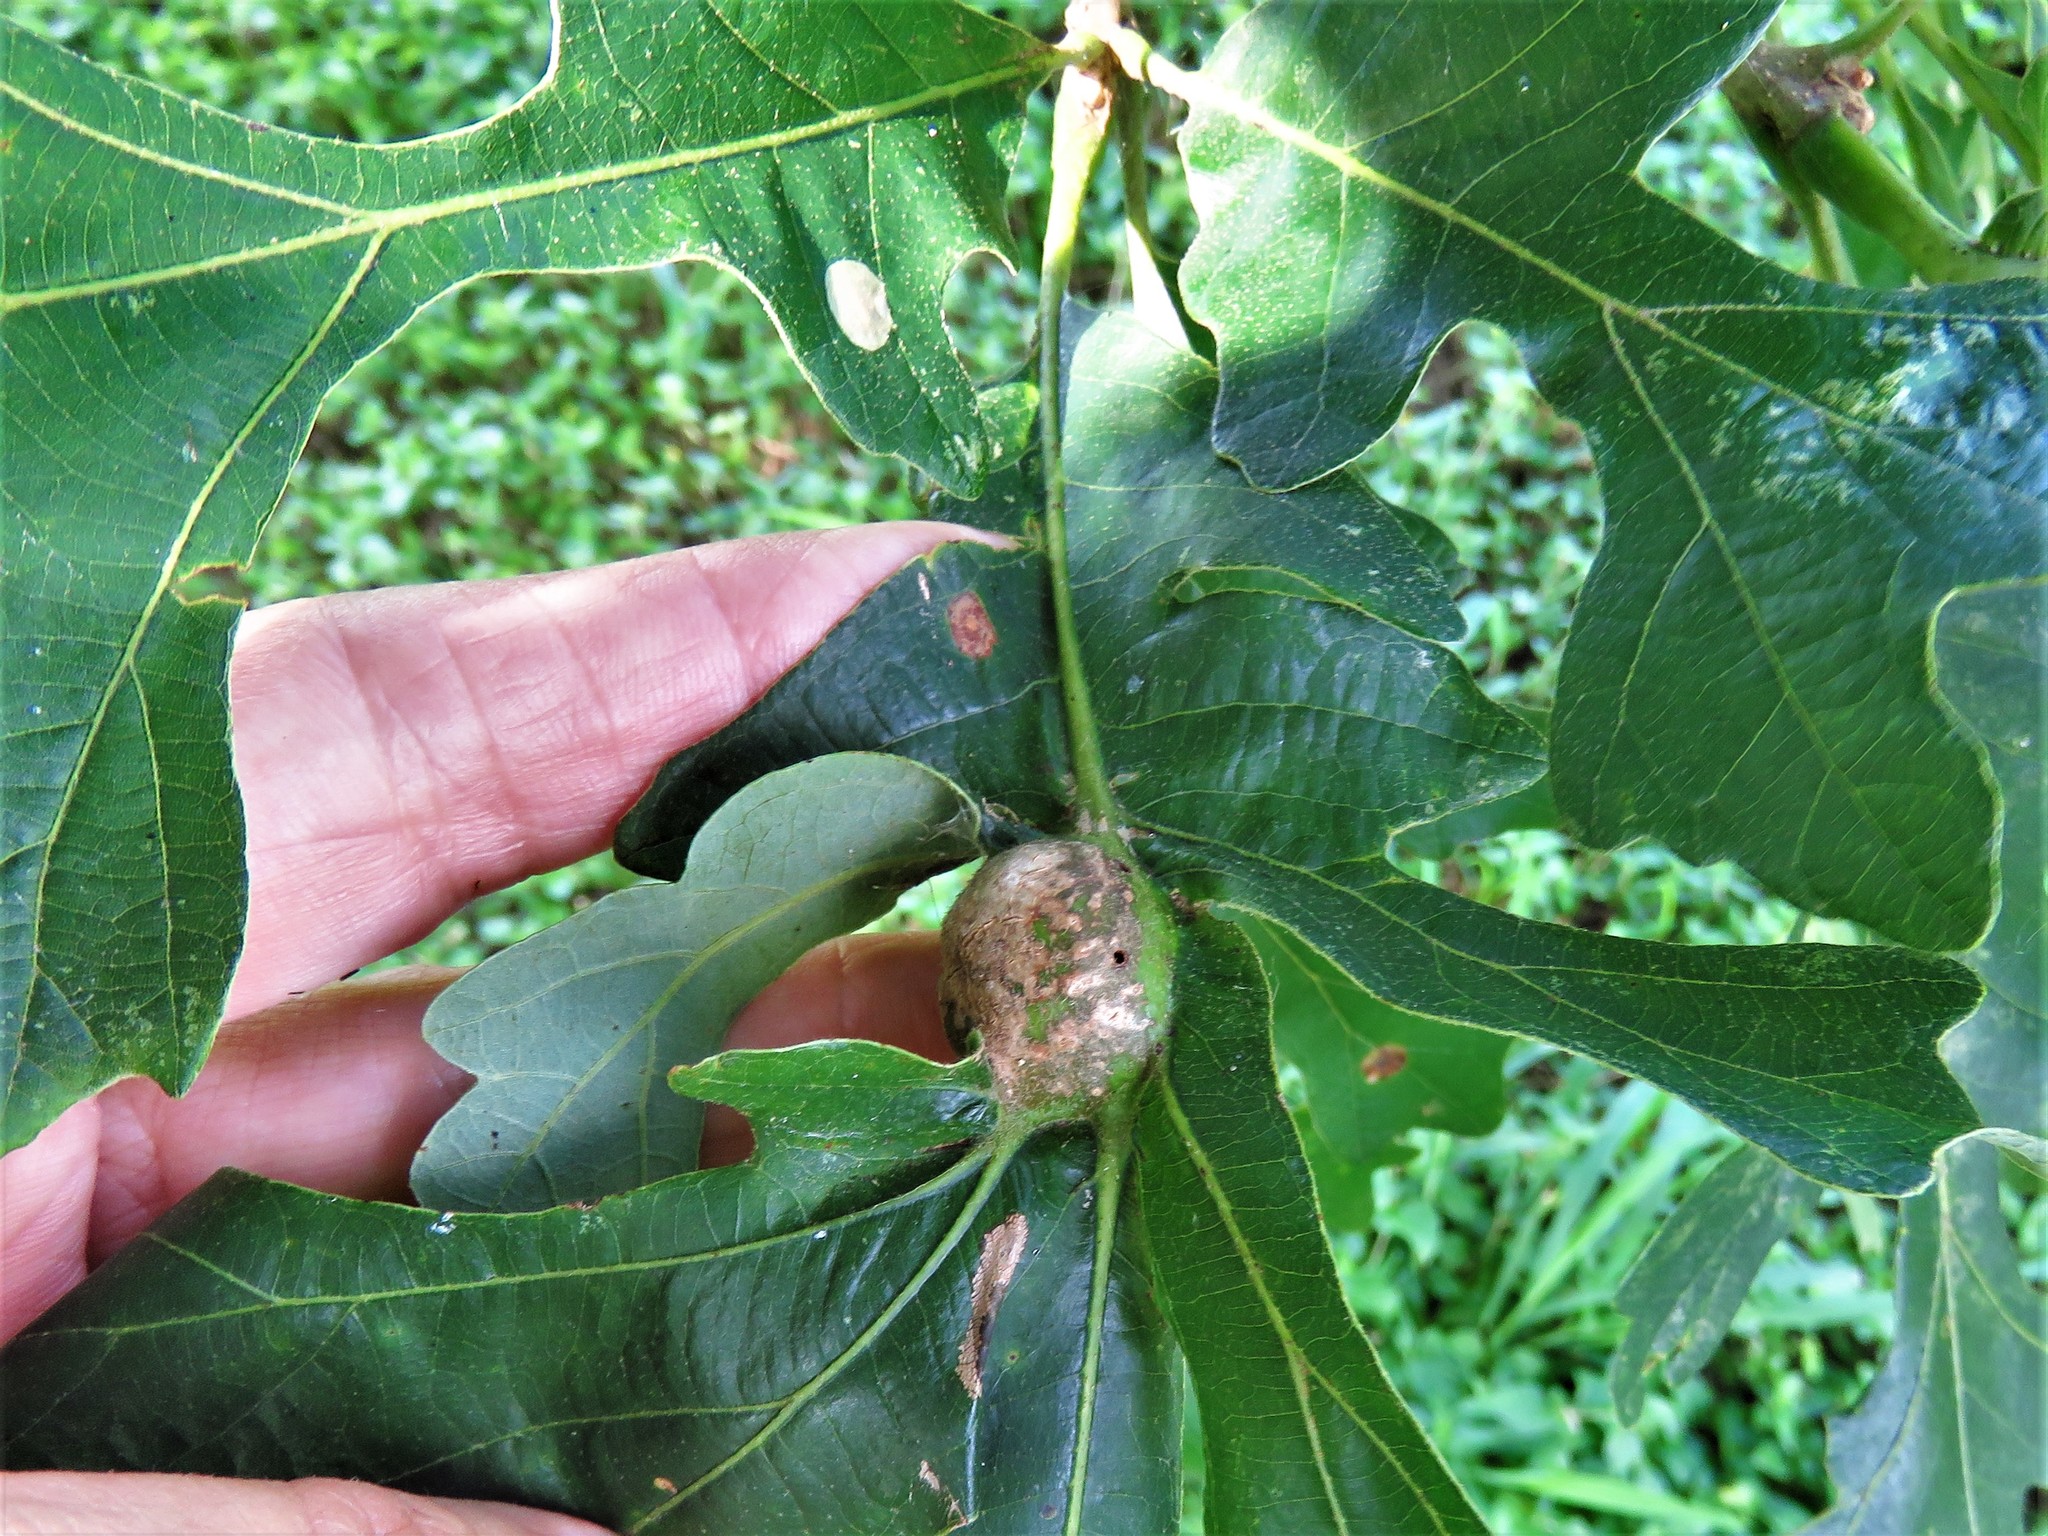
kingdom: Animalia
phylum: Arthropoda
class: Insecta
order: Hymenoptera
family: Cynipidae
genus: Andricus
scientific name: Andricus
